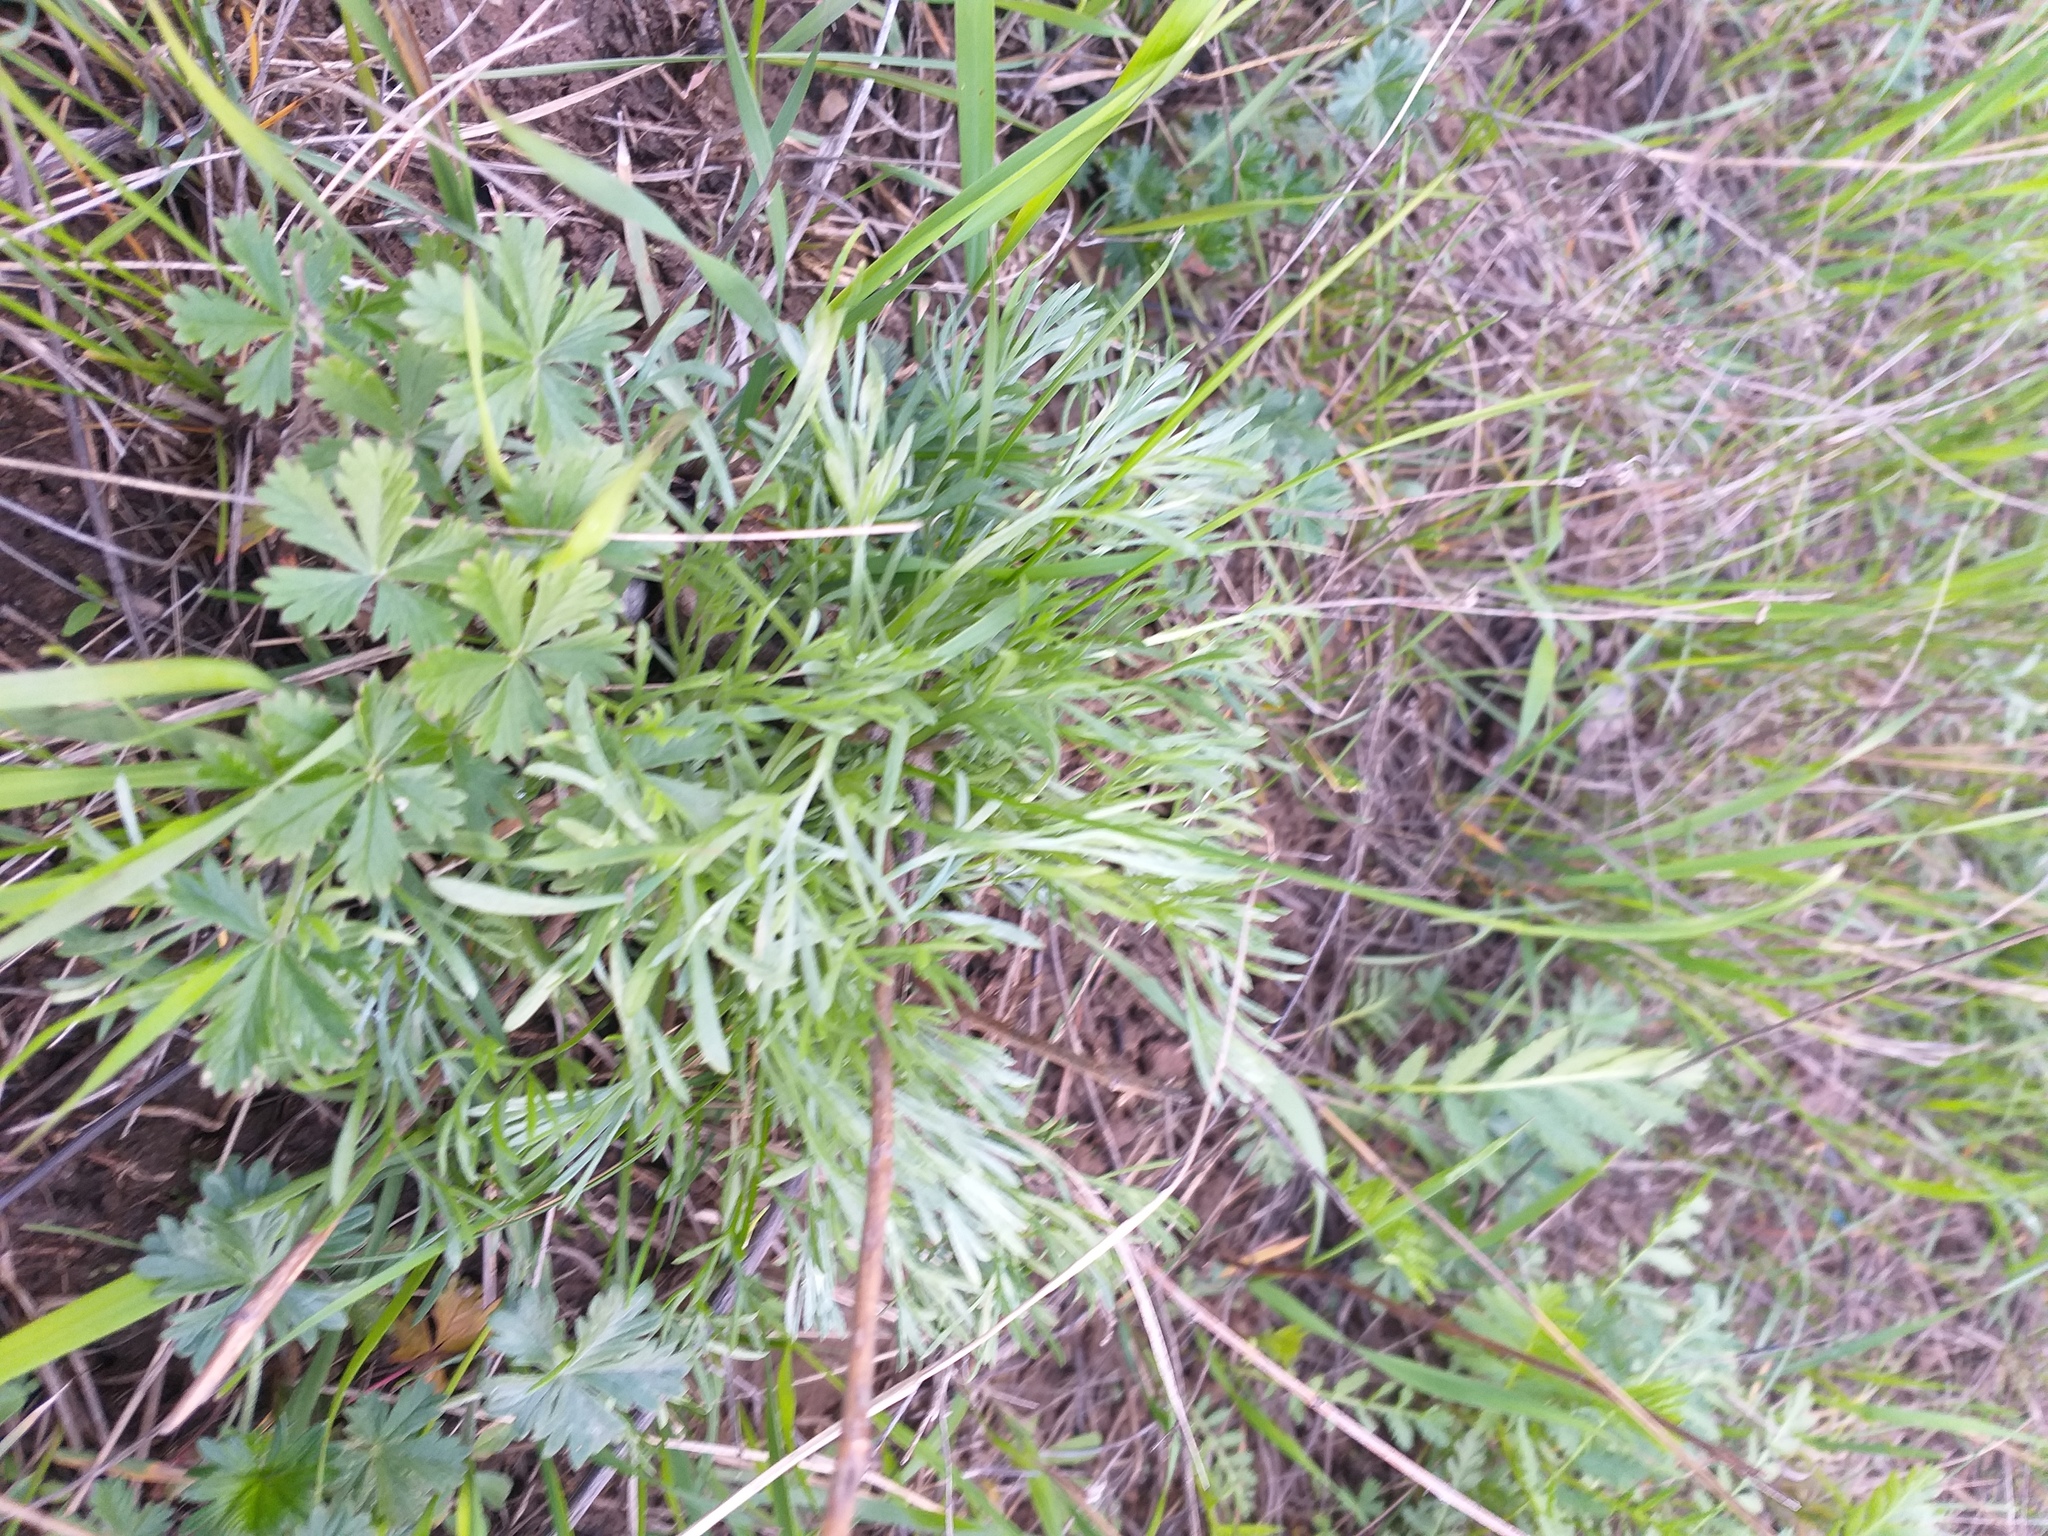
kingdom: Plantae
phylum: Tracheophyta
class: Magnoliopsida
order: Asterales
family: Asteraceae
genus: Artemisia
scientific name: Artemisia campestris
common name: Field wormwood
